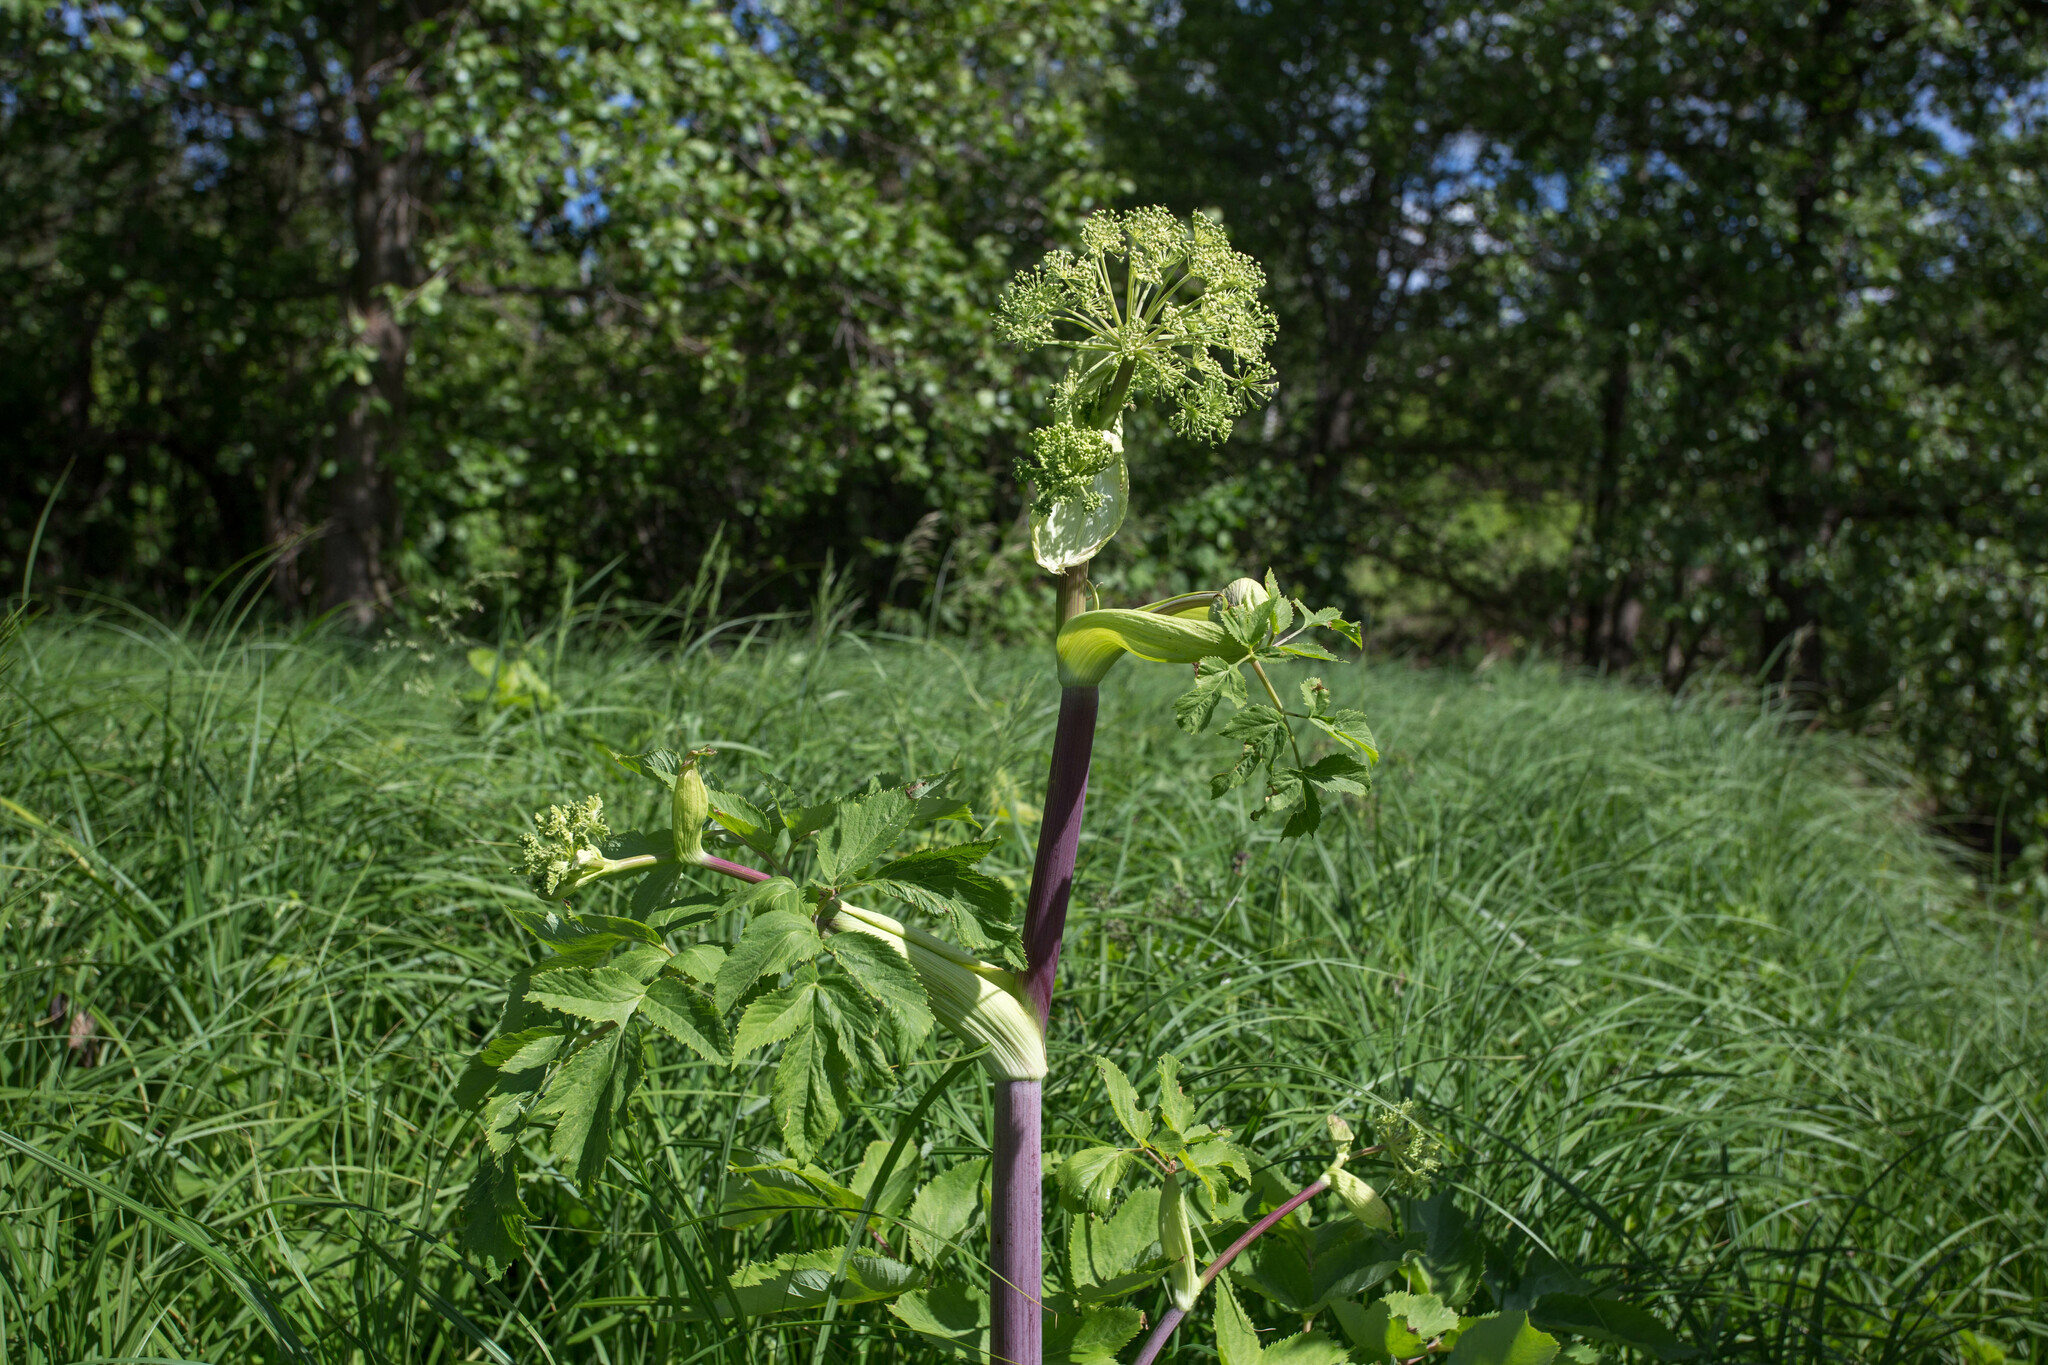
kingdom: Plantae
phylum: Tracheophyta
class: Magnoliopsida
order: Apiales
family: Apiaceae
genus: Angelica
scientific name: Angelica archangelica
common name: Garden angelica
